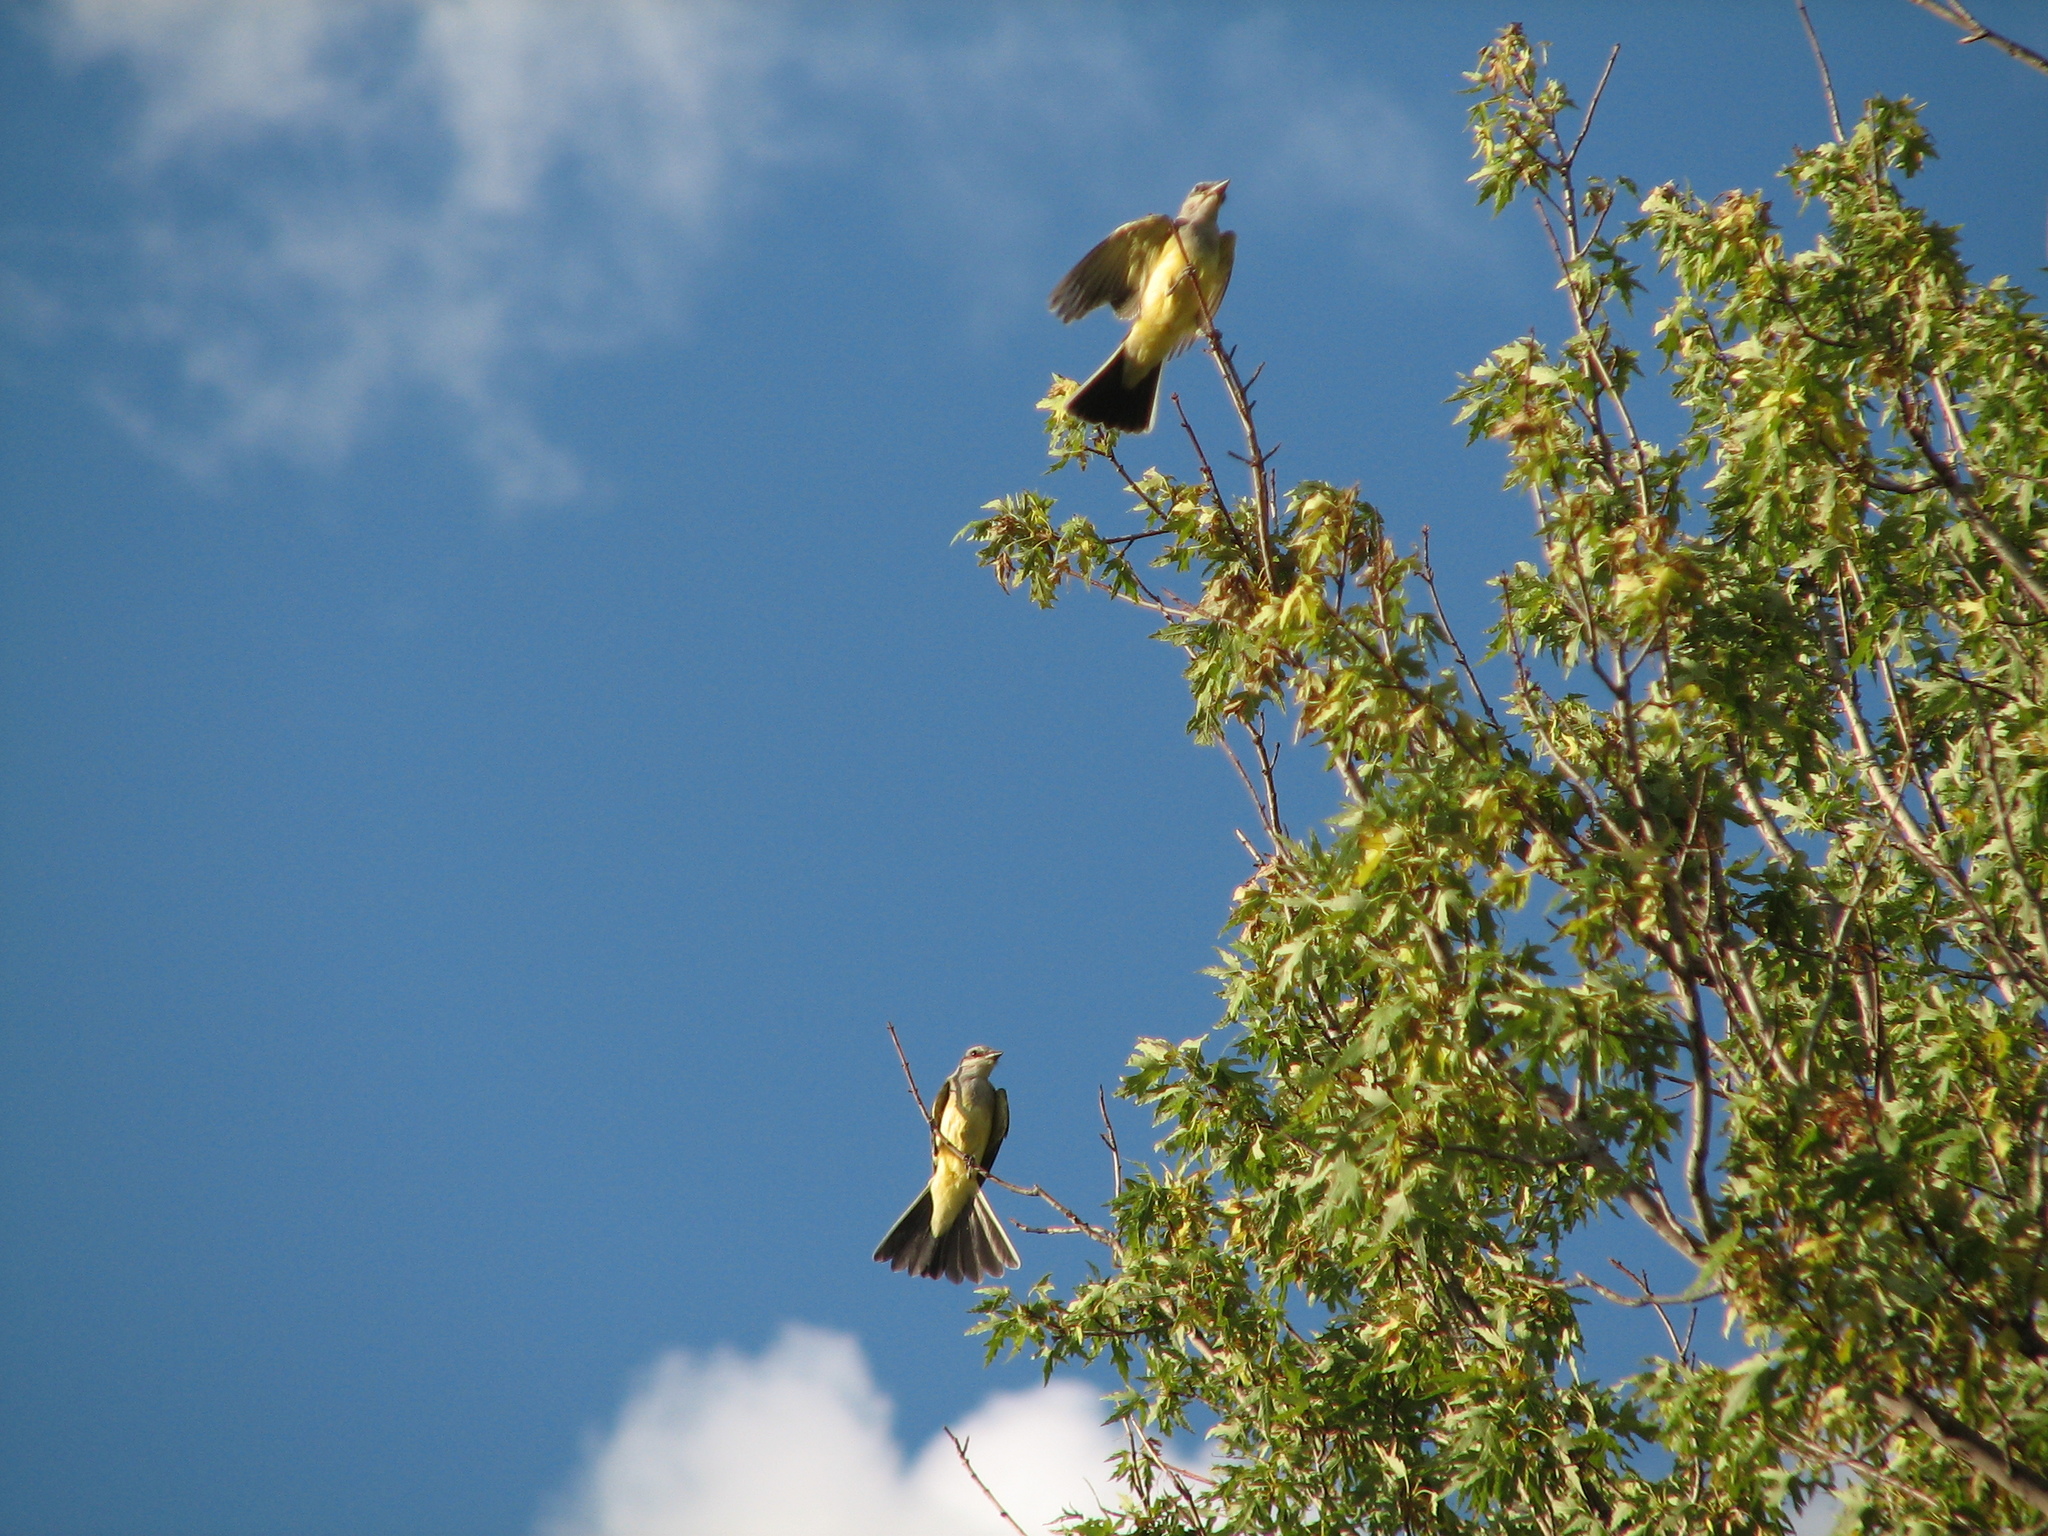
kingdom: Animalia
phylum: Chordata
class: Aves
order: Passeriformes
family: Tyrannidae
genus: Tyrannus
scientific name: Tyrannus verticalis
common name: Western kingbird
